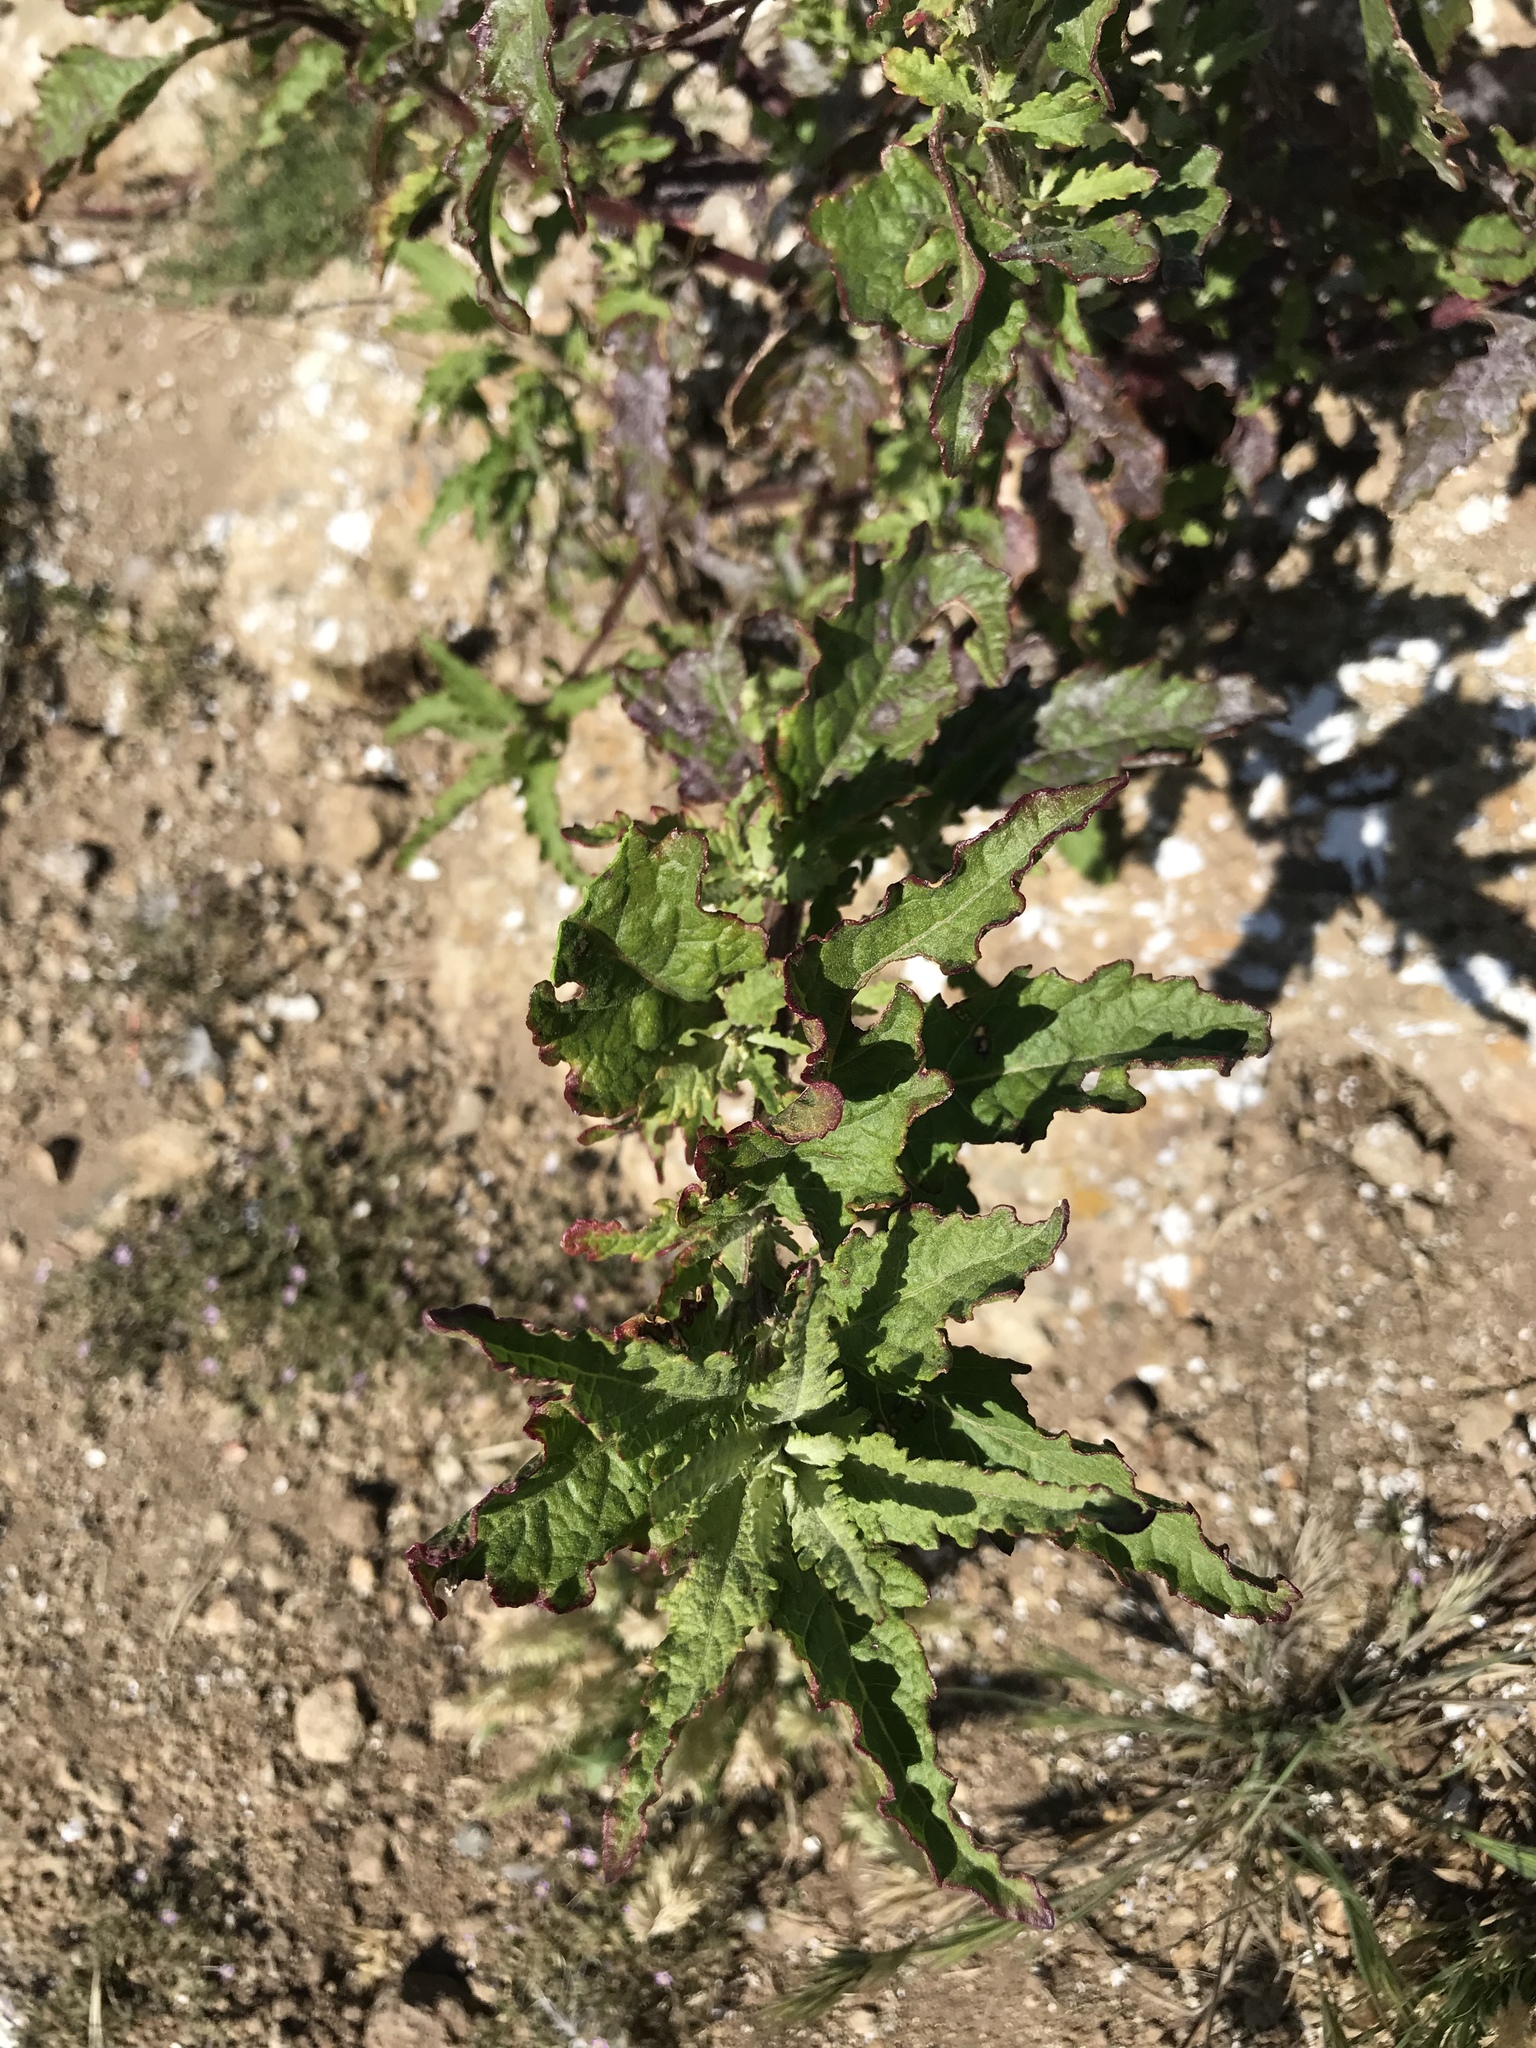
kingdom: Plantae
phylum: Tracheophyta
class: Magnoliopsida
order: Caryophyllales
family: Amaranthaceae
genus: Dysphania
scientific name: Dysphania ambrosioides
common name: Wormseed
